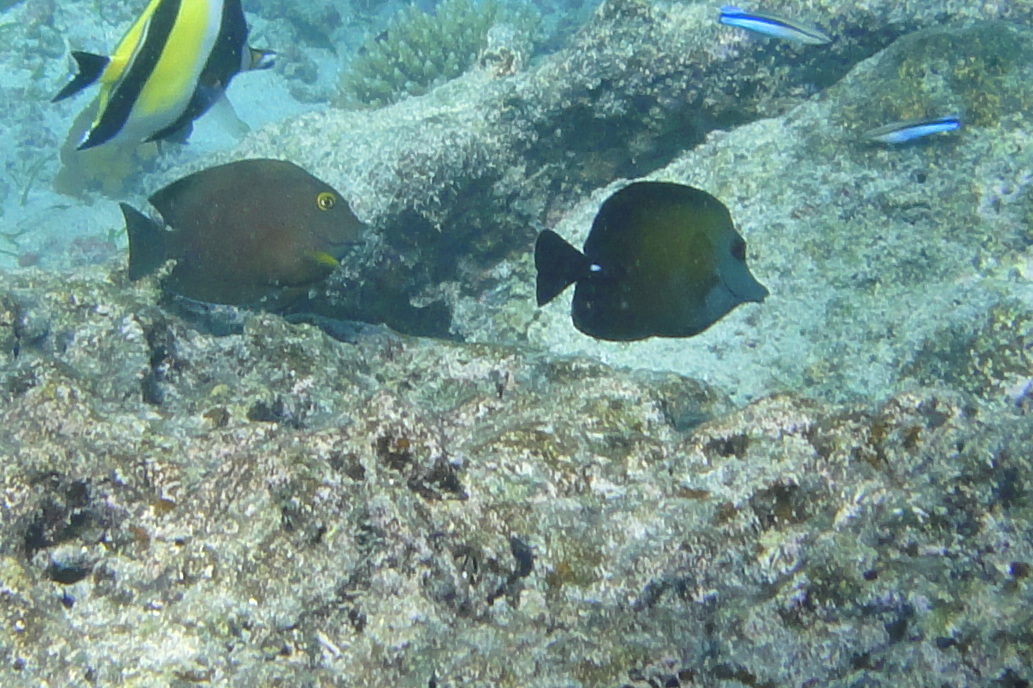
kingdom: Animalia
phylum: Chordata
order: Perciformes
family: Acanthuridae
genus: Zebrasoma
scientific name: Zebrasoma scopas
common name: Twotone tang
